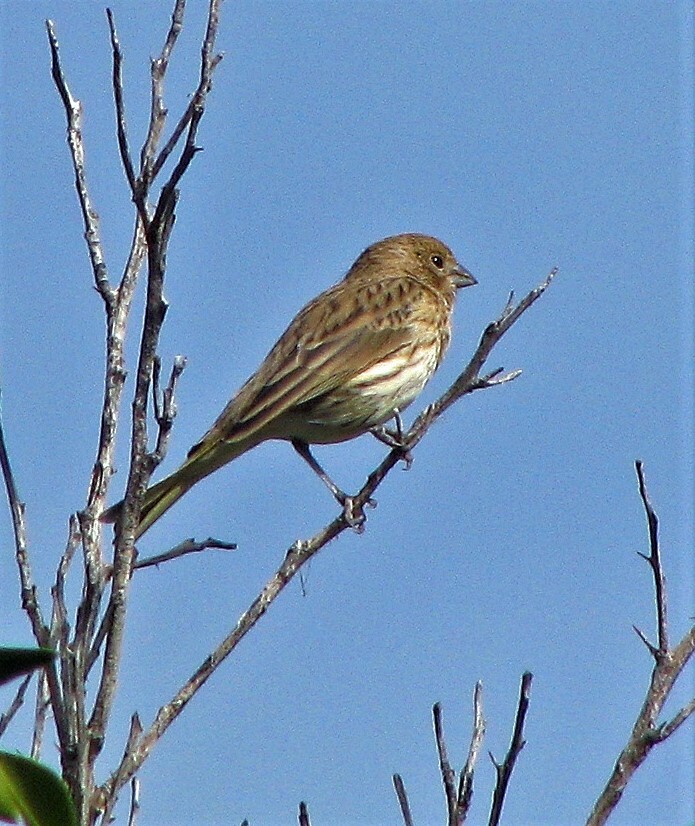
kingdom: Animalia
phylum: Chordata
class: Aves
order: Passeriformes
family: Thraupidae
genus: Sicalis
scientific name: Sicalis flaveola
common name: Saffron finch
